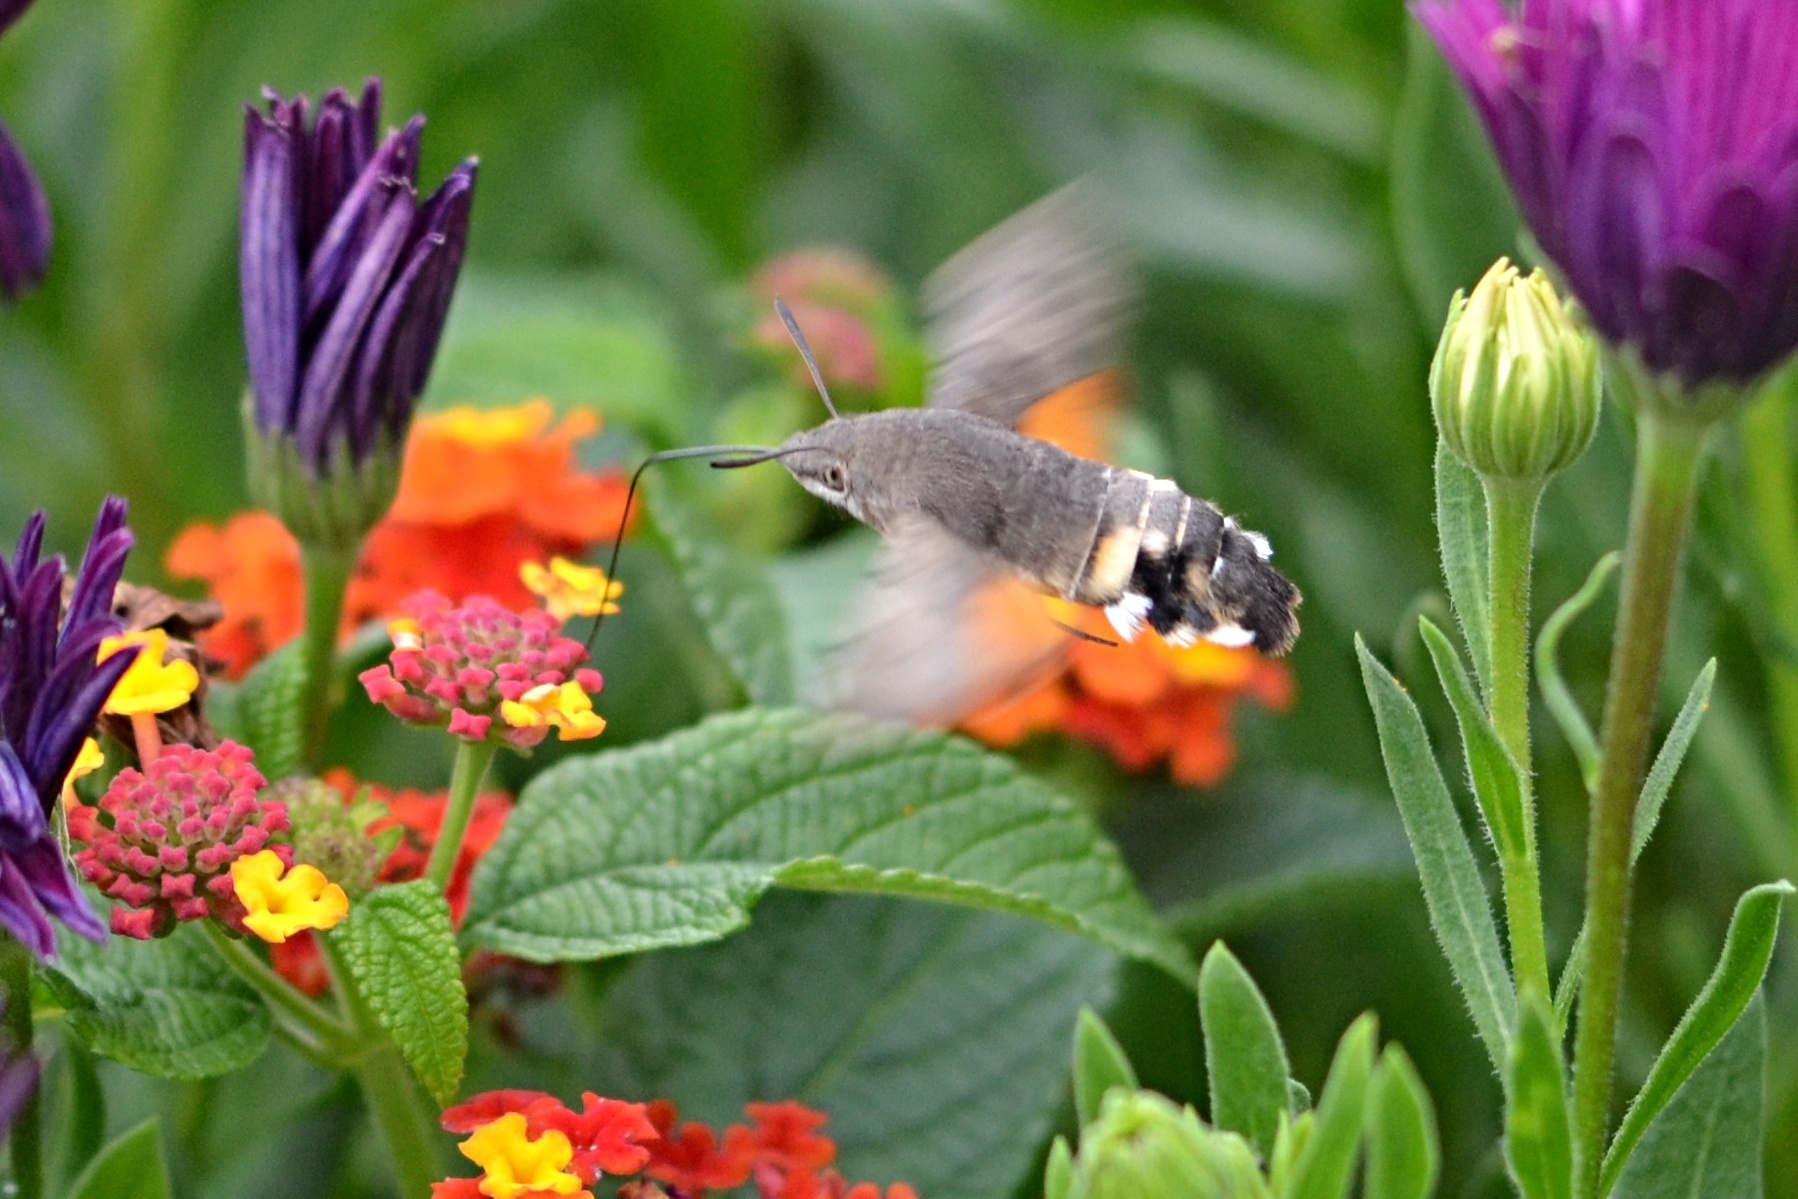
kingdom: Animalia
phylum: Arthropoda
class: Insecta
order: Lepidoptera
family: Sphingidae
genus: Macroglossum
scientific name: Macroglossum stellatarum
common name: Humming-bird hawk-moth
